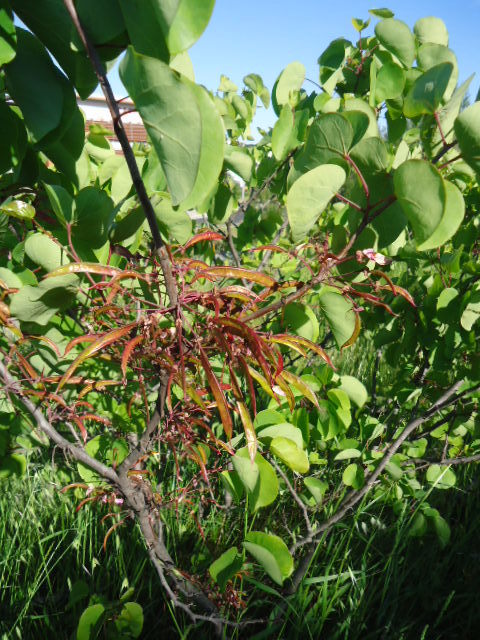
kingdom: Plantae
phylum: Tracheophyta
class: Magnoliopsida
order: Fabales
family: Fabaceae
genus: Cercis
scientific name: Cercis siliquastrum
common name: Judas tree
